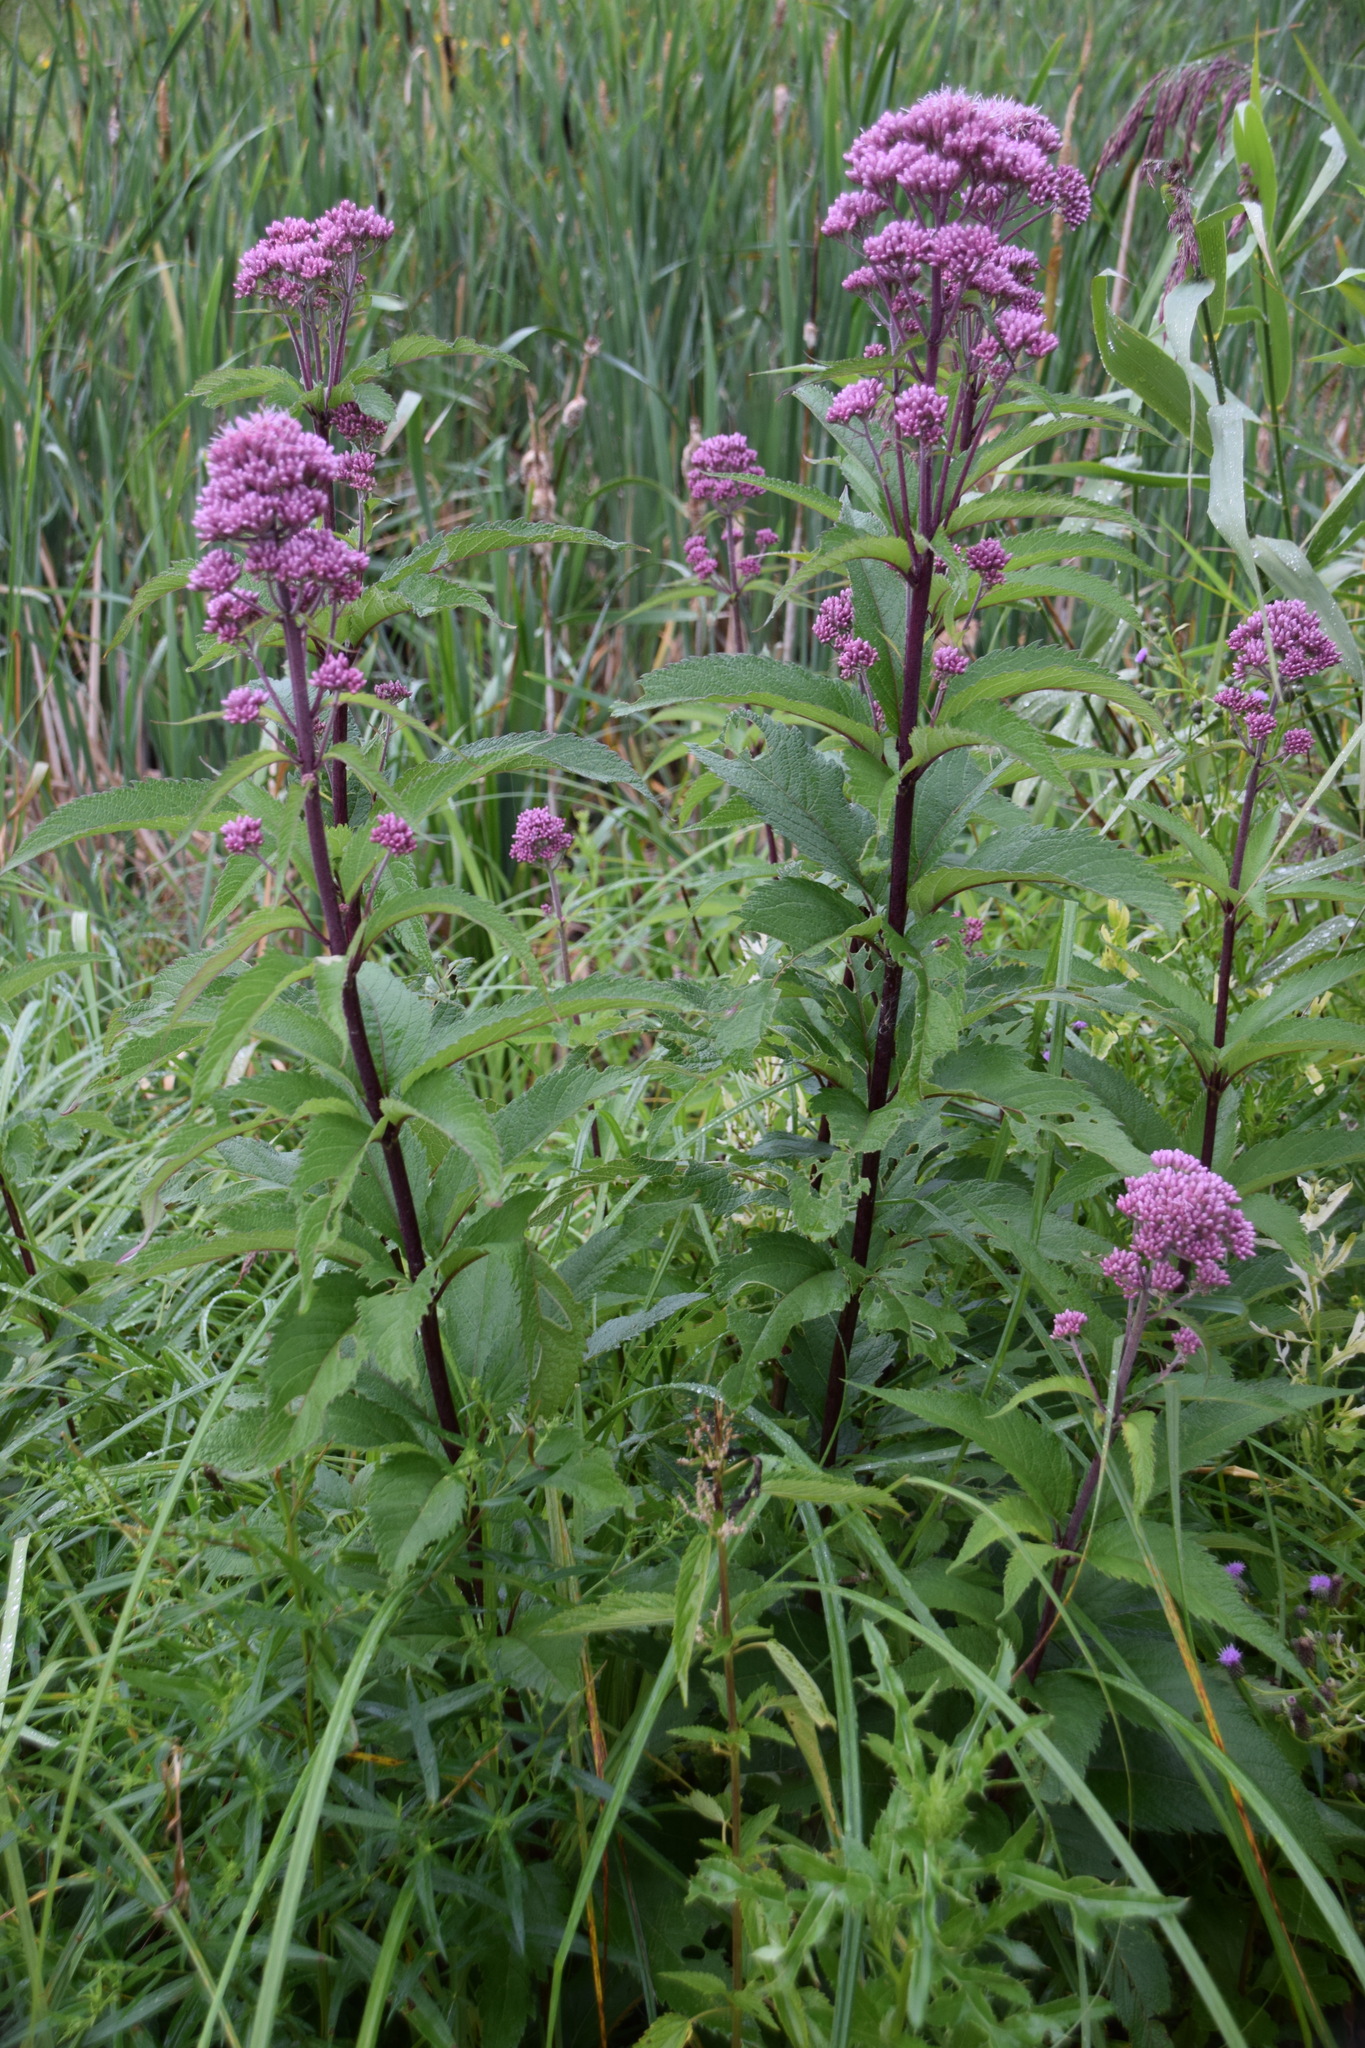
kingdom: Plantae
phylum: Tracheophyta
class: Magnoliopsida
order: Asterales
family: Asteraceae
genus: Eutrochium
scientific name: Eutrochium maculatum
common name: Spotted joe pye weed
